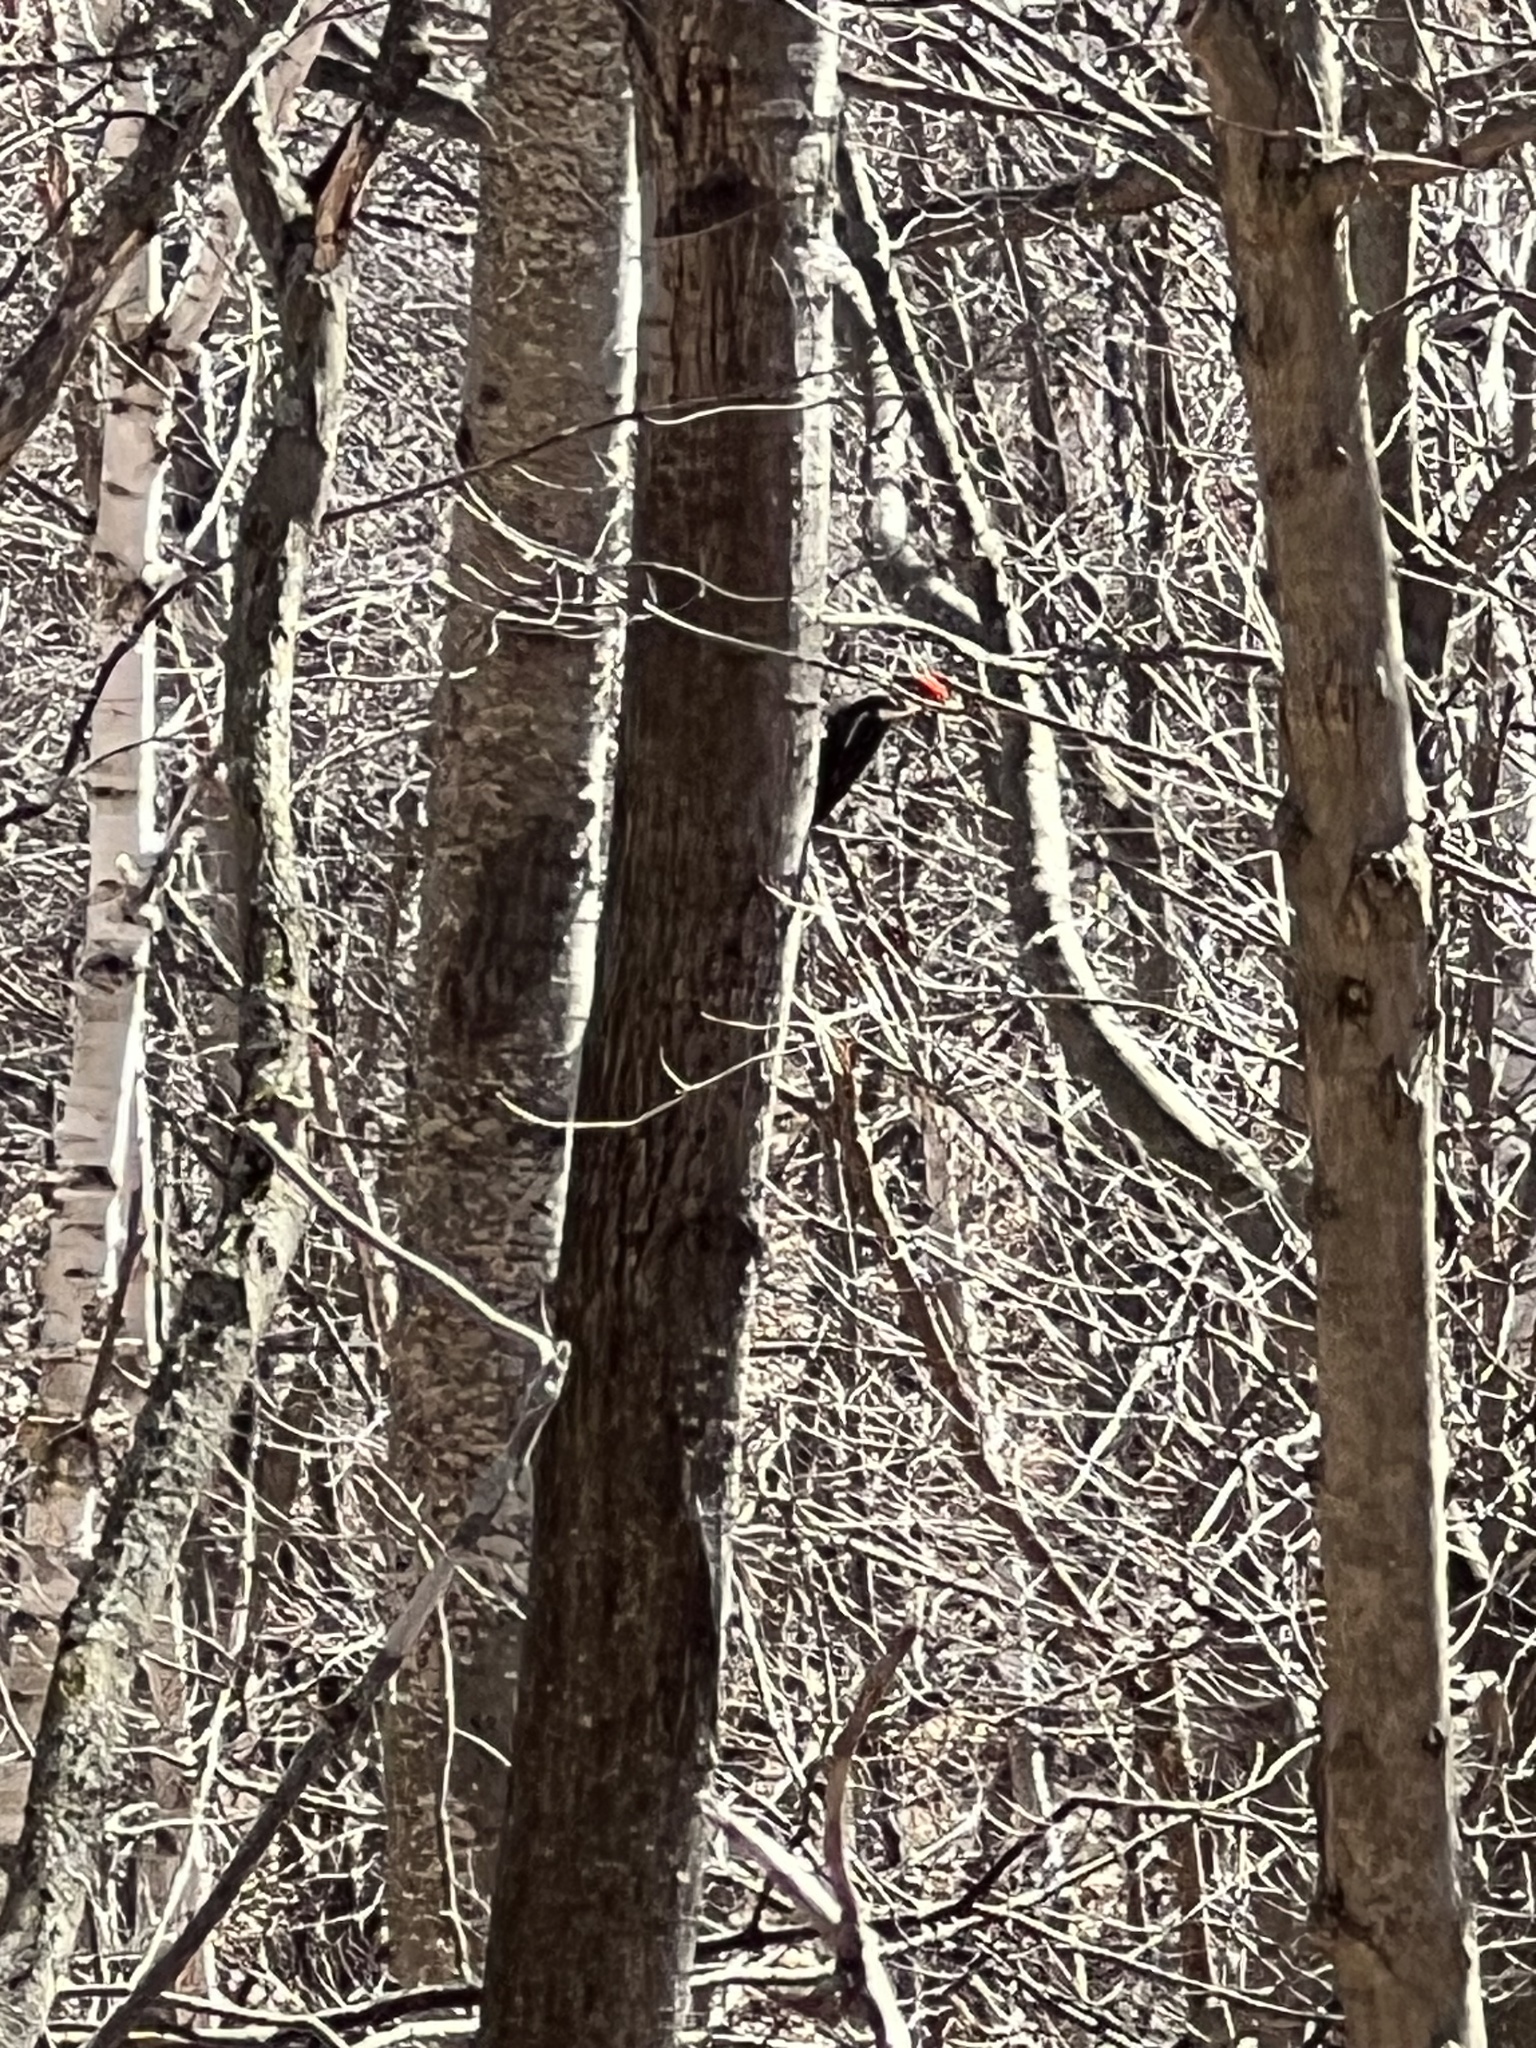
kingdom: Animalia
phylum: Chordata
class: Aves
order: Piciformes
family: Picidae
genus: Dryocopus
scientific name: Dryocopus pileatus
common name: Pileated woodpecker
